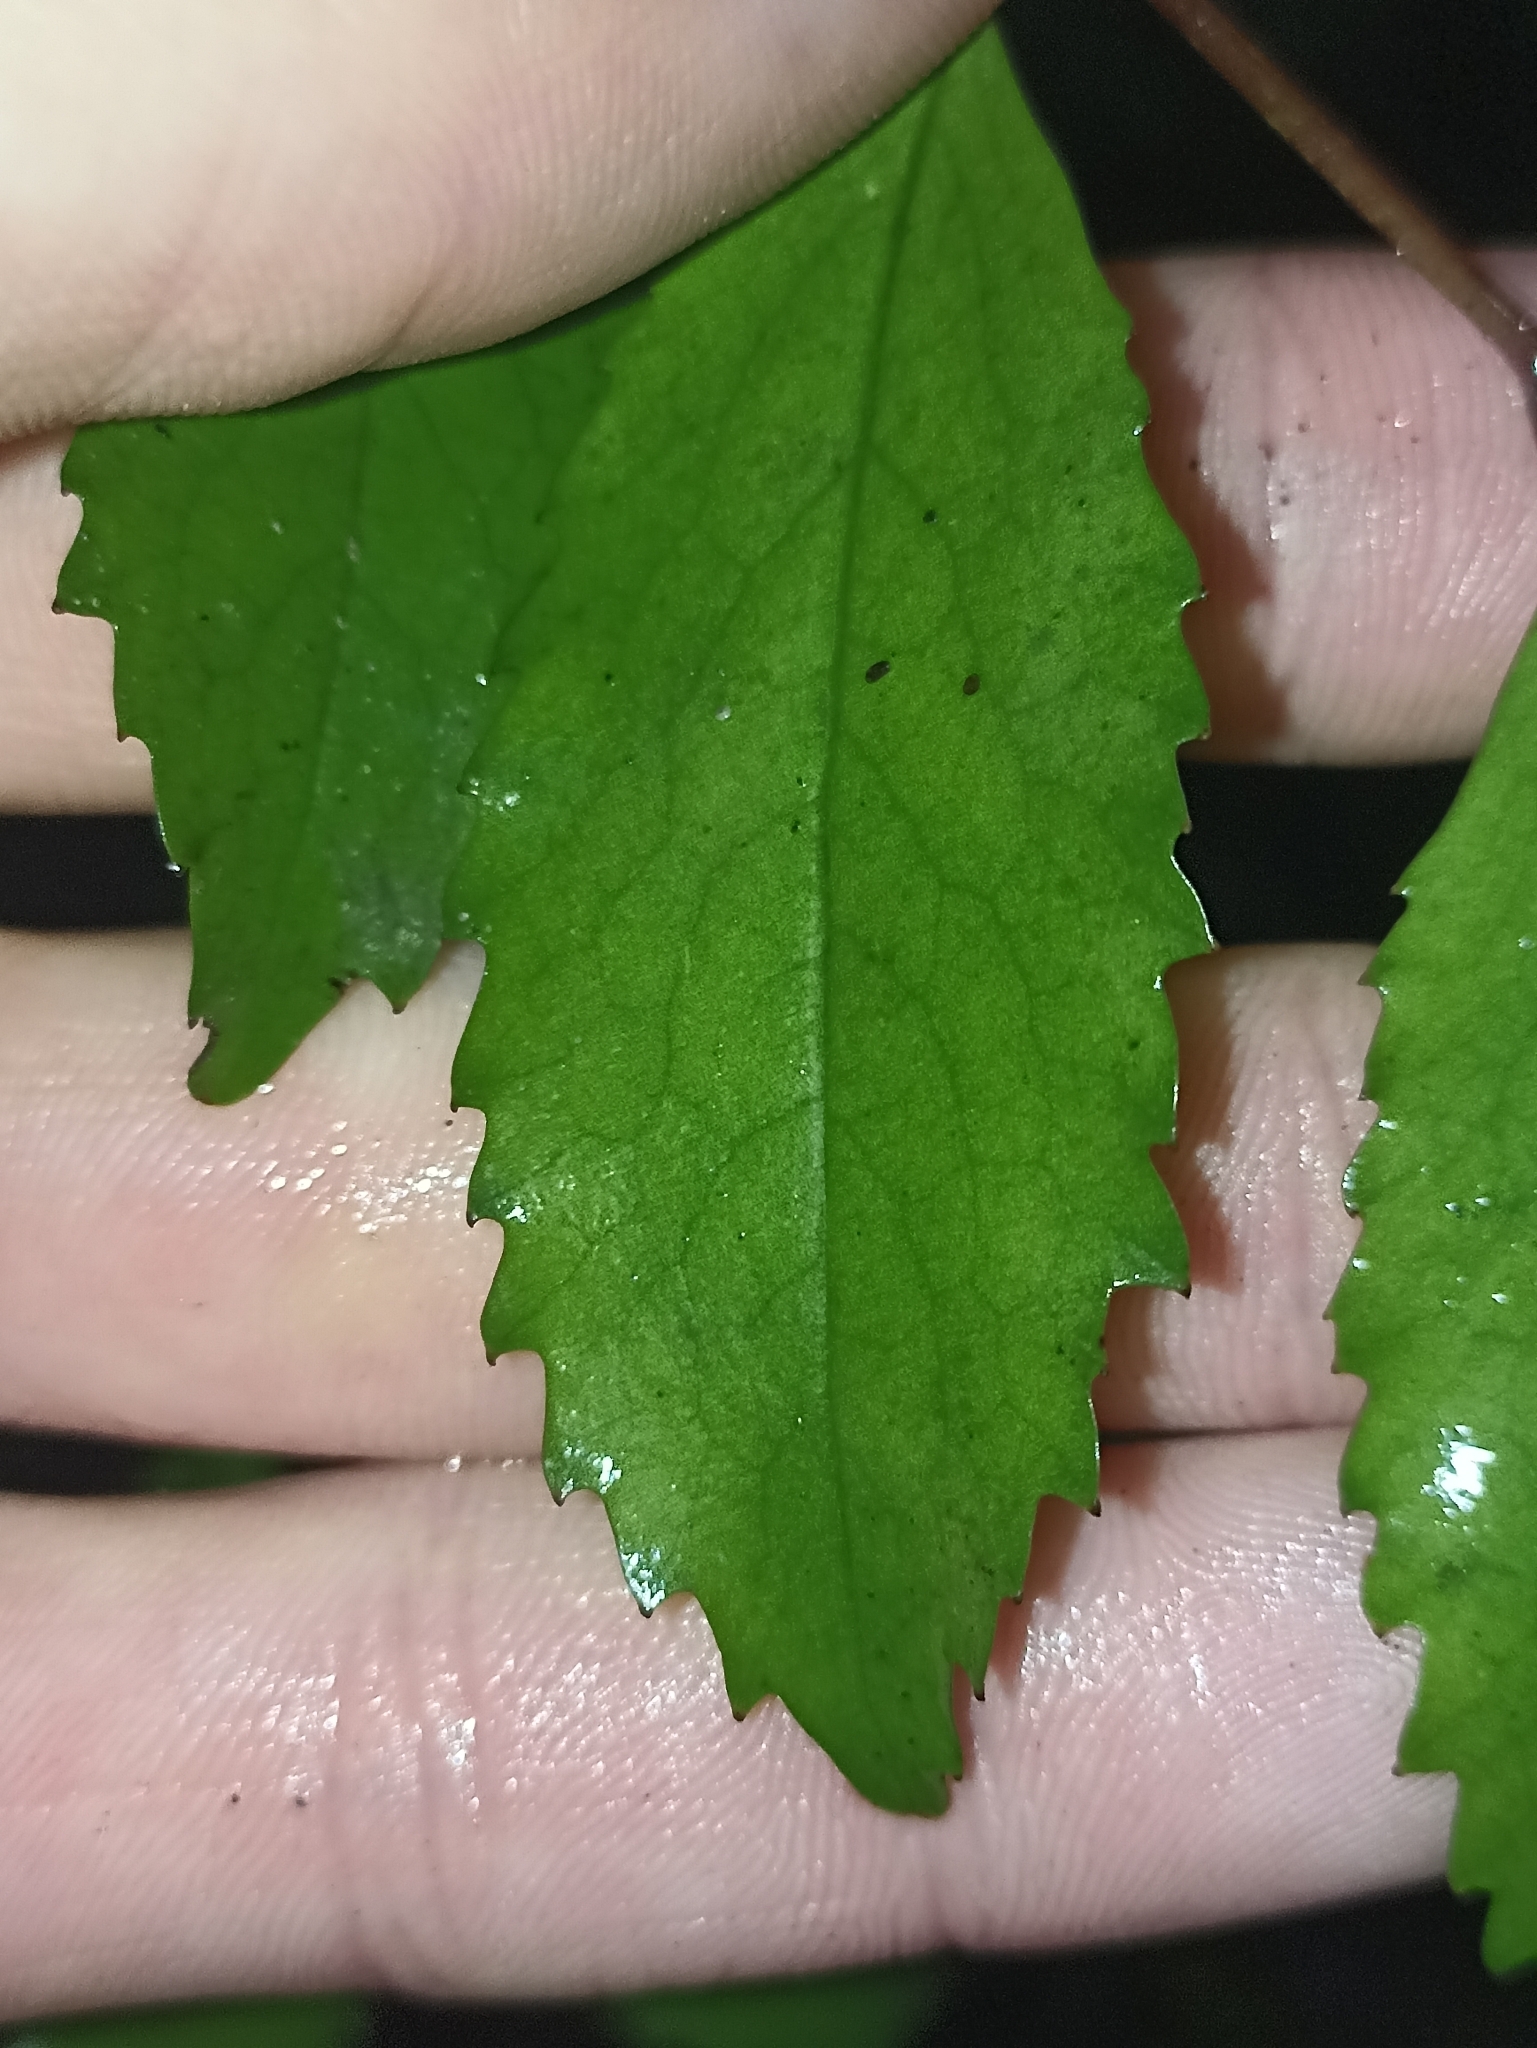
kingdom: Plantae
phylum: Tracheophyta
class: Magnoliopsida
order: Laurales
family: Atherospermataceae
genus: Laurelia
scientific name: Laurelia novae-zelandiae
